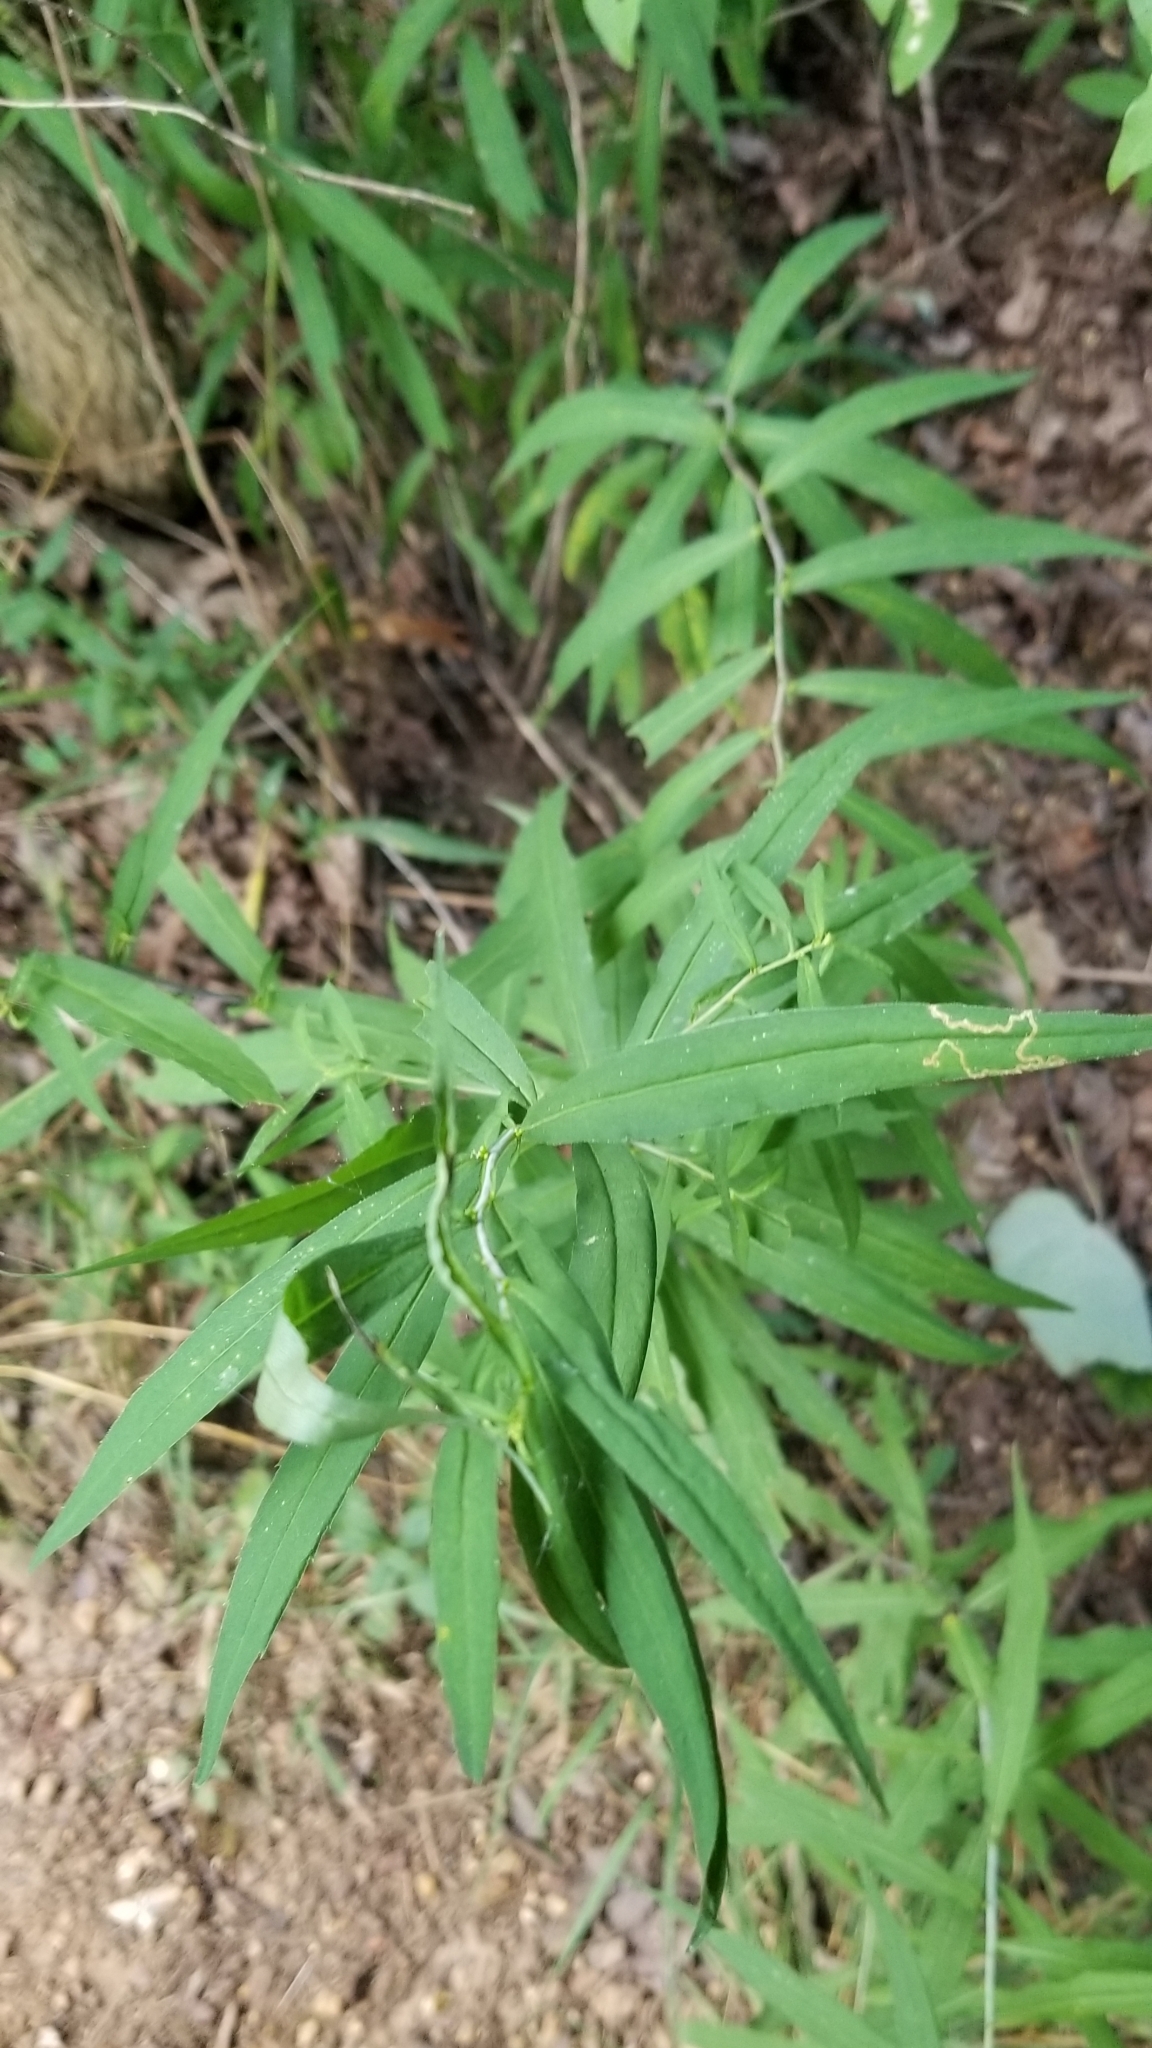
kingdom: Plantae
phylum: Tracheophyta
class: Magnoliopsida
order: Asterales
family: Asteraceae
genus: Solidago
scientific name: Solidago caesia
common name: Woodland goldenrod
